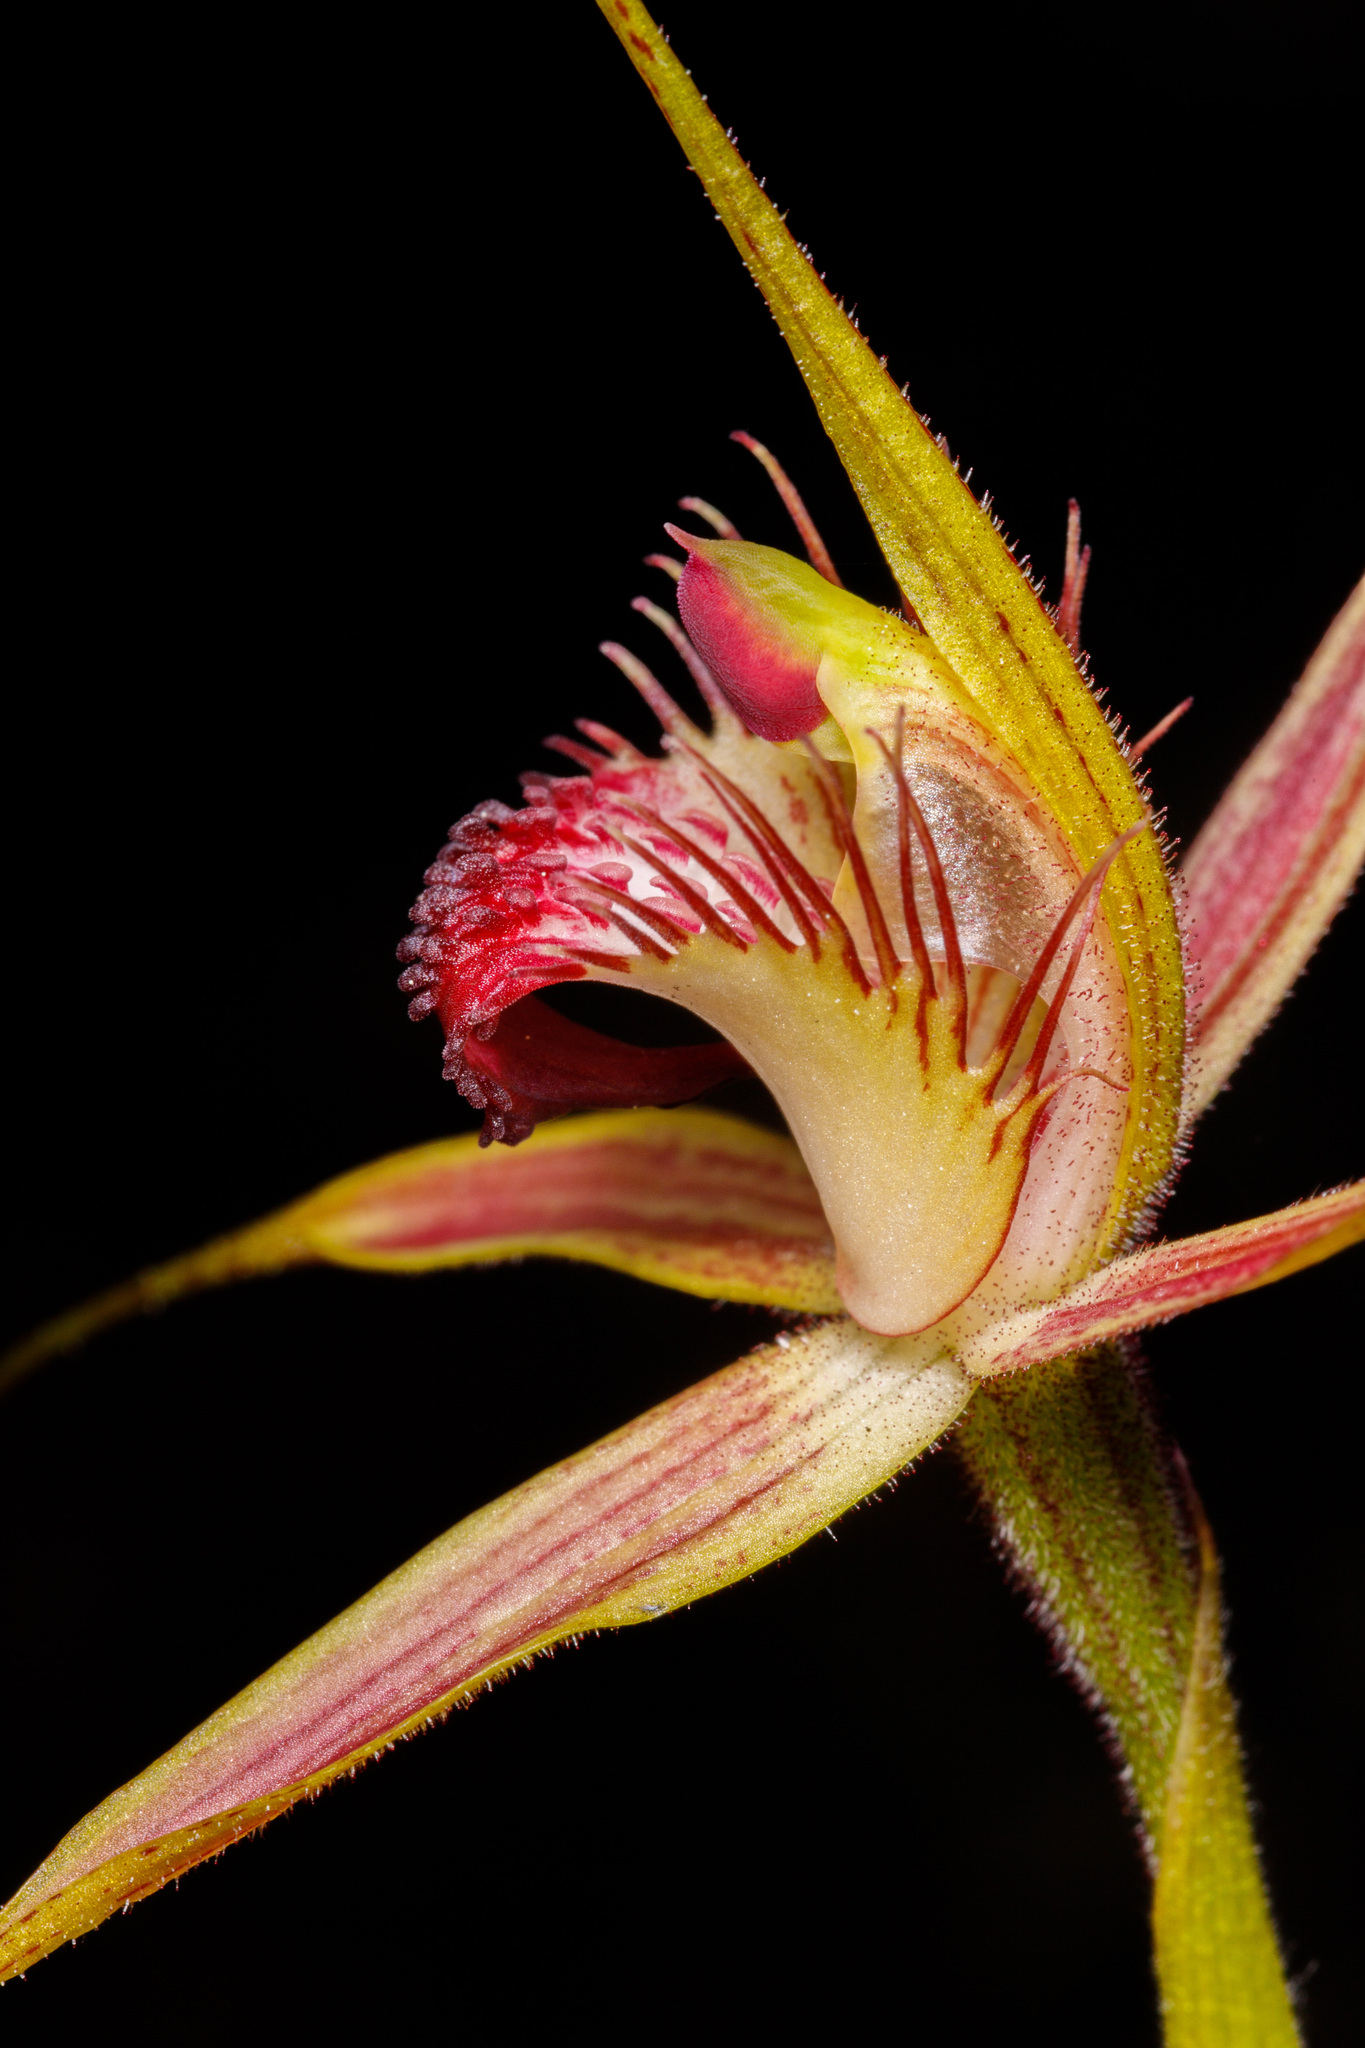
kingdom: Plantae
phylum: Tracheophyta
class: Liliopsida
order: Asparagales
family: Orchidaceae
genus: Caladenia
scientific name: Caladenia pectinata
